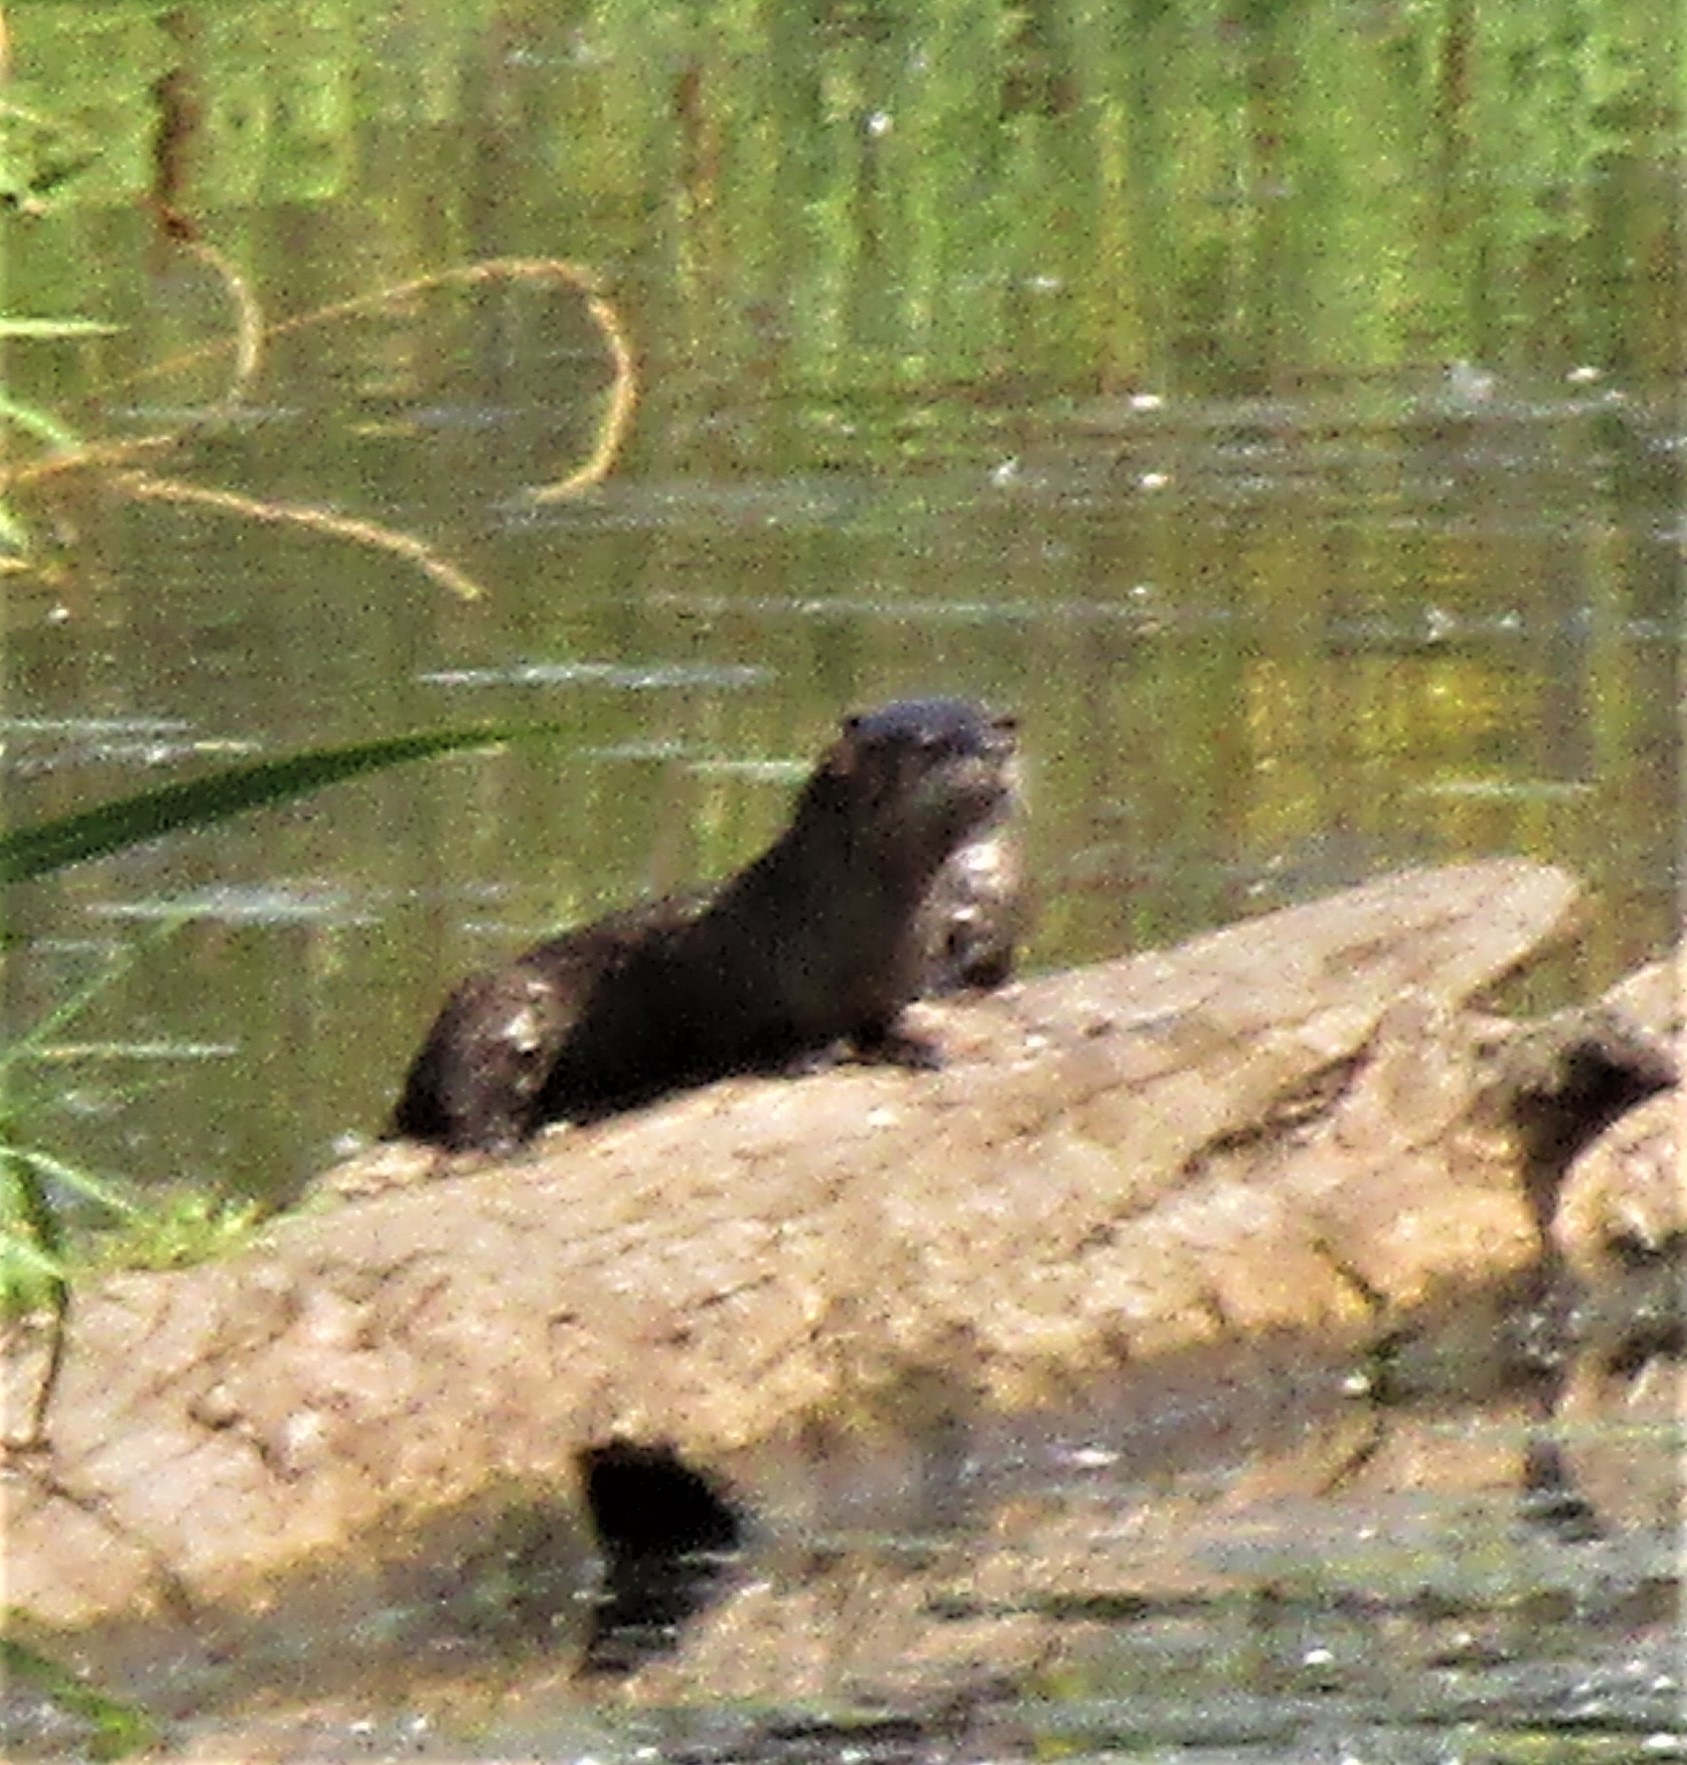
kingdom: Animalia
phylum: Chordata
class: Mammalia
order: Carnivora
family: Mustelidae
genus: Lontra
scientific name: Lontra canadensis
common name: North american river otter
